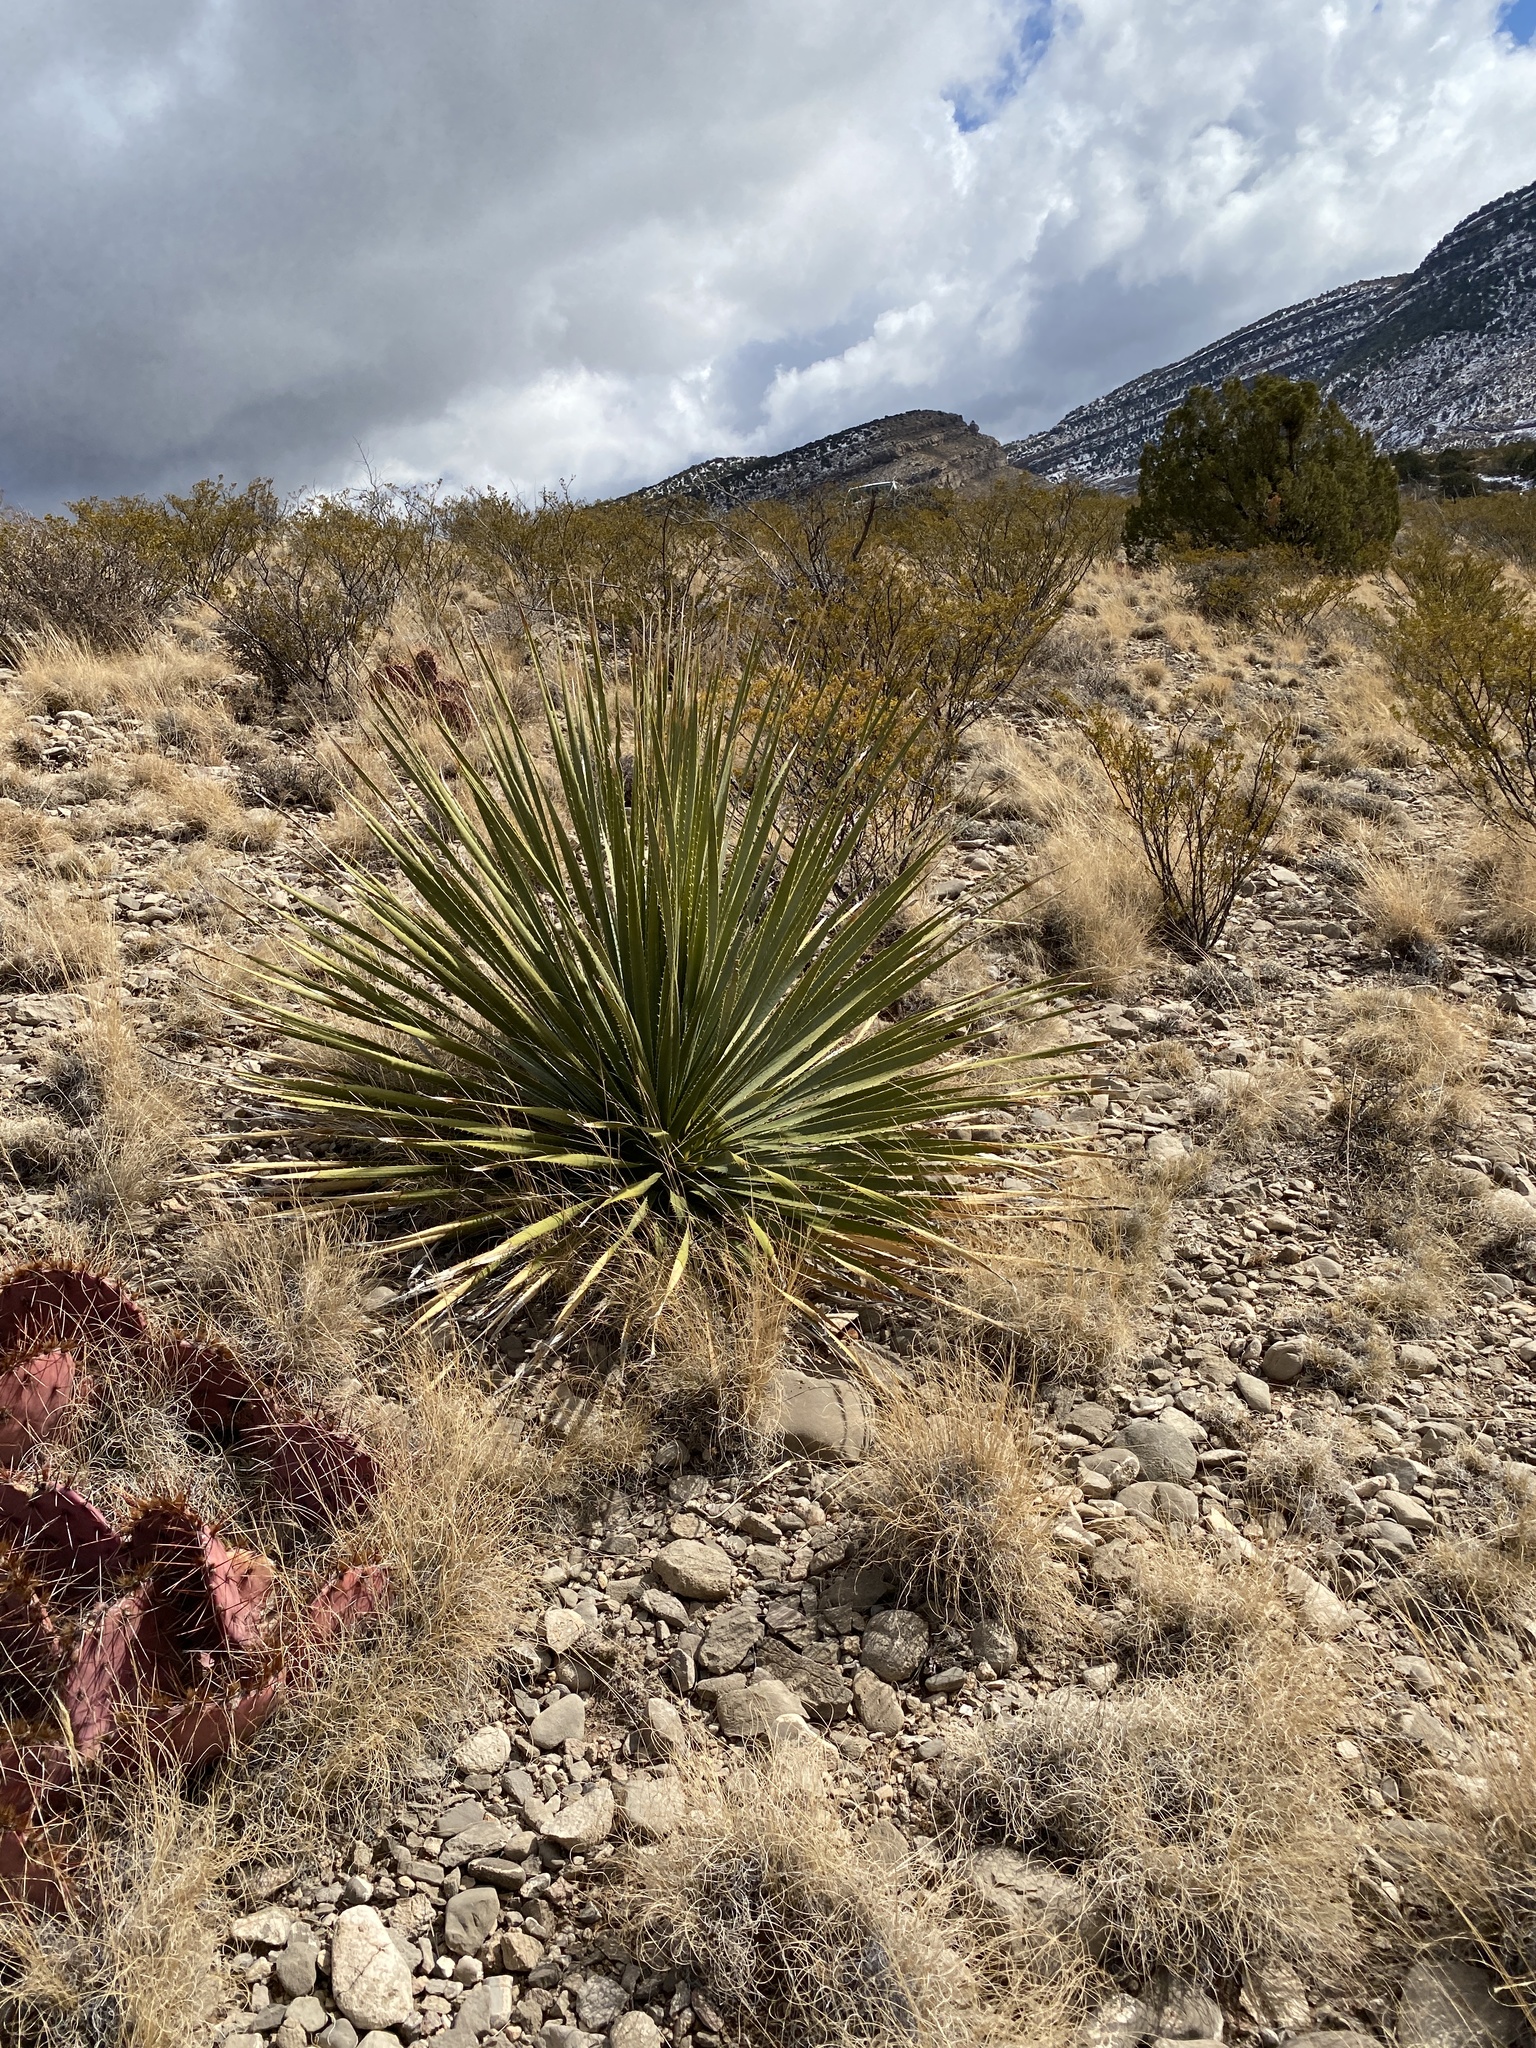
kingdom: Plantae
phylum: Tracheophyta
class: Liliopsida
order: Asparagales
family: Asparagaceae
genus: Dasylirion
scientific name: Dasylirion wheeleri
